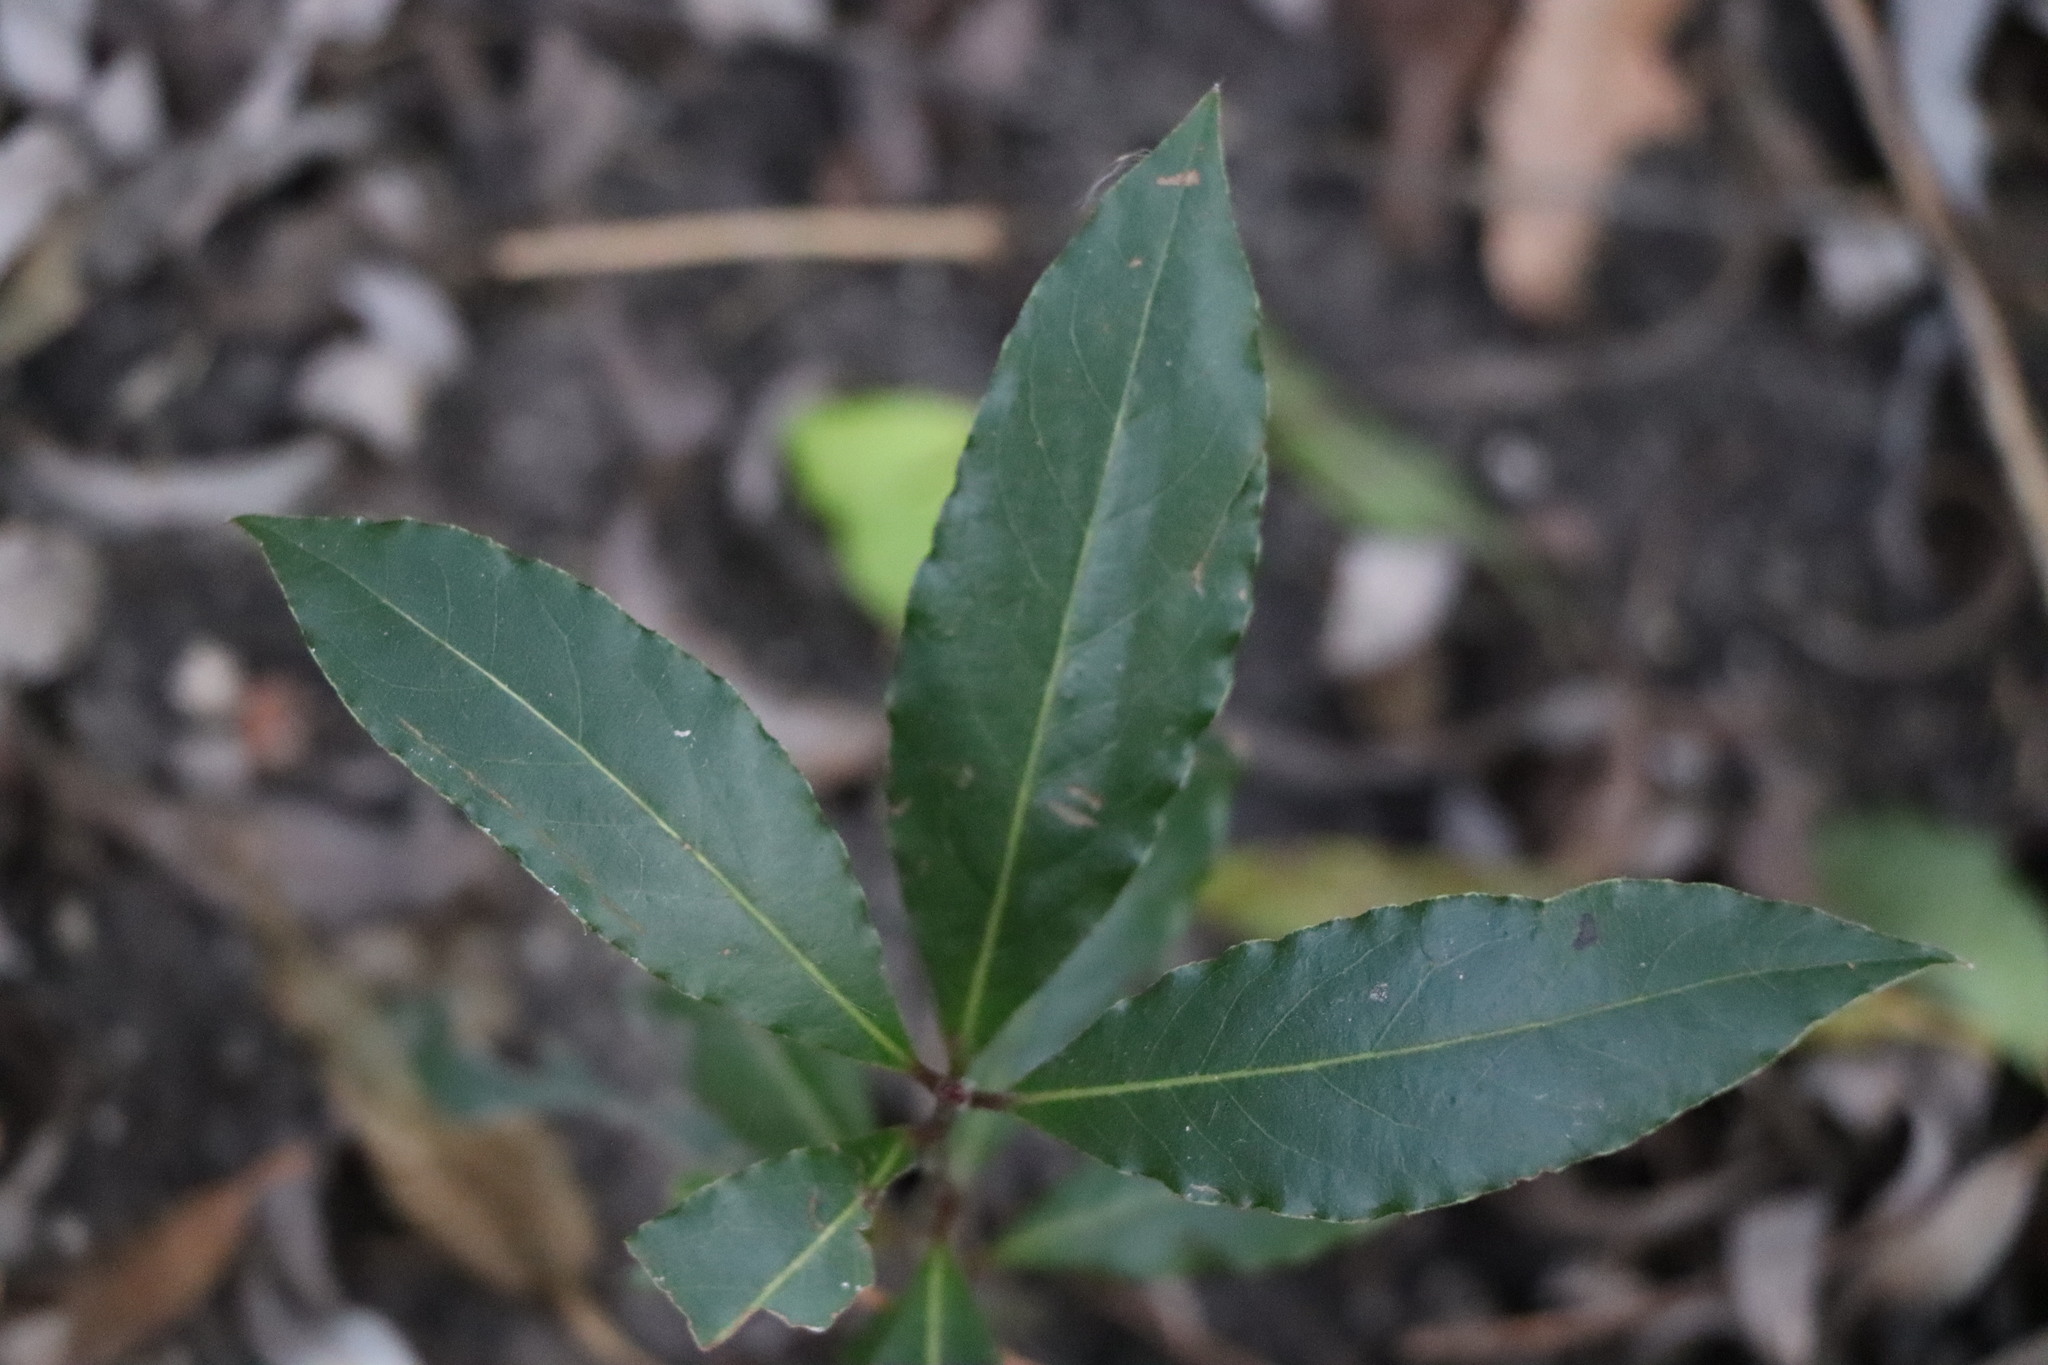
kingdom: Plantae
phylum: Tracheophyta
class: Magnoliopsida
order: Laurales
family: Lauraceae
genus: Laurus
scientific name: Laurus nobilis
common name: Bay
